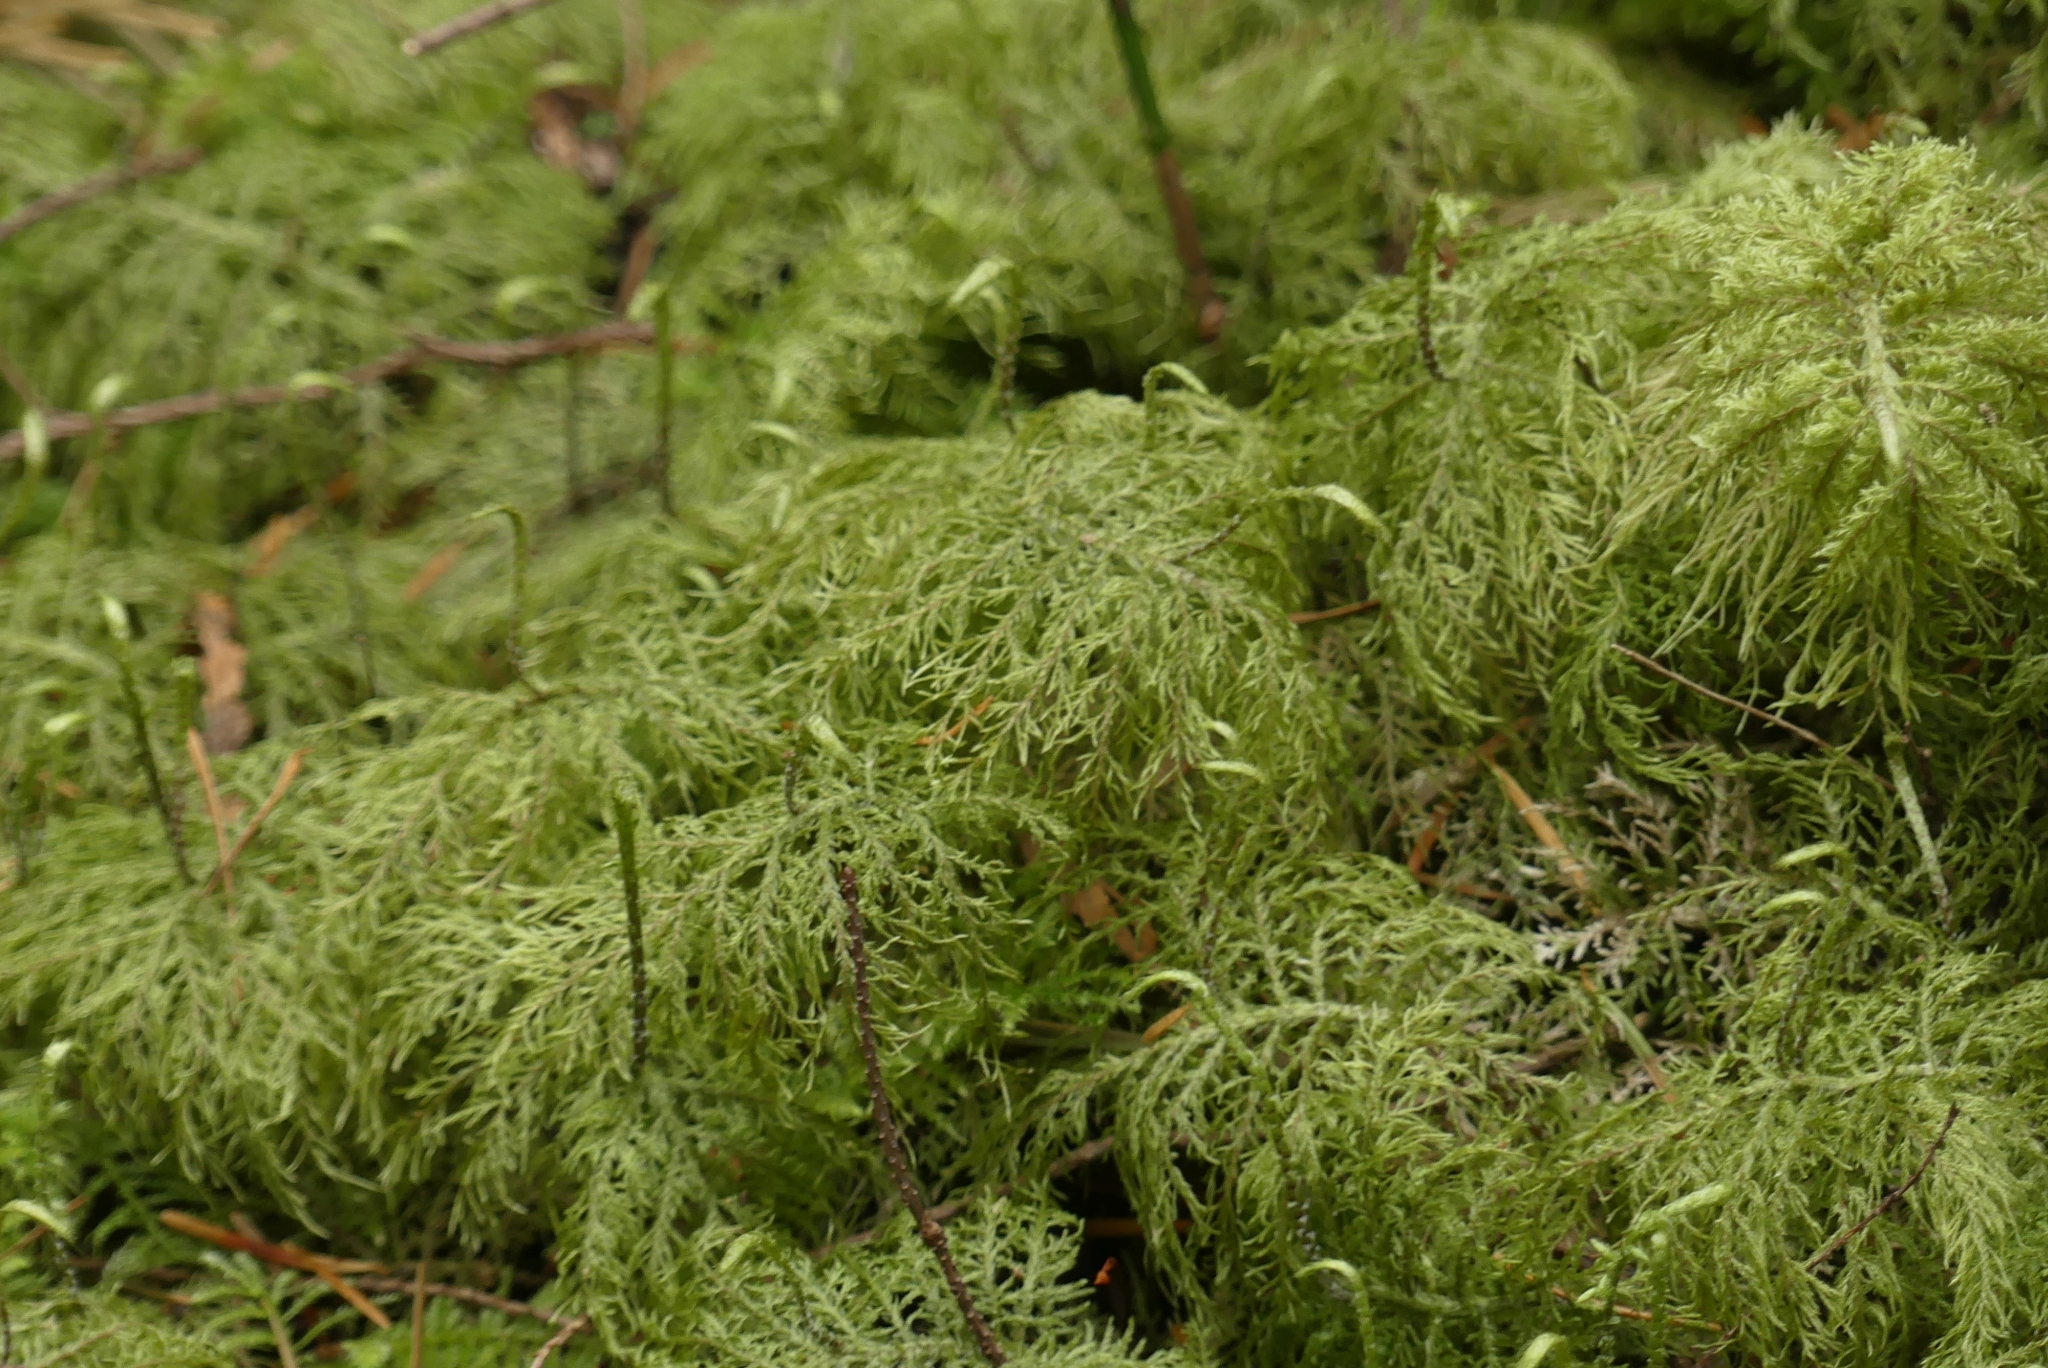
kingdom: Plantae
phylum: Bryophyta
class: Bryopsida
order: Hypnales
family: Hylocomiaceae
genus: Hylocomium
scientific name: Hylocomium splendens
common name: Stairstep moss
